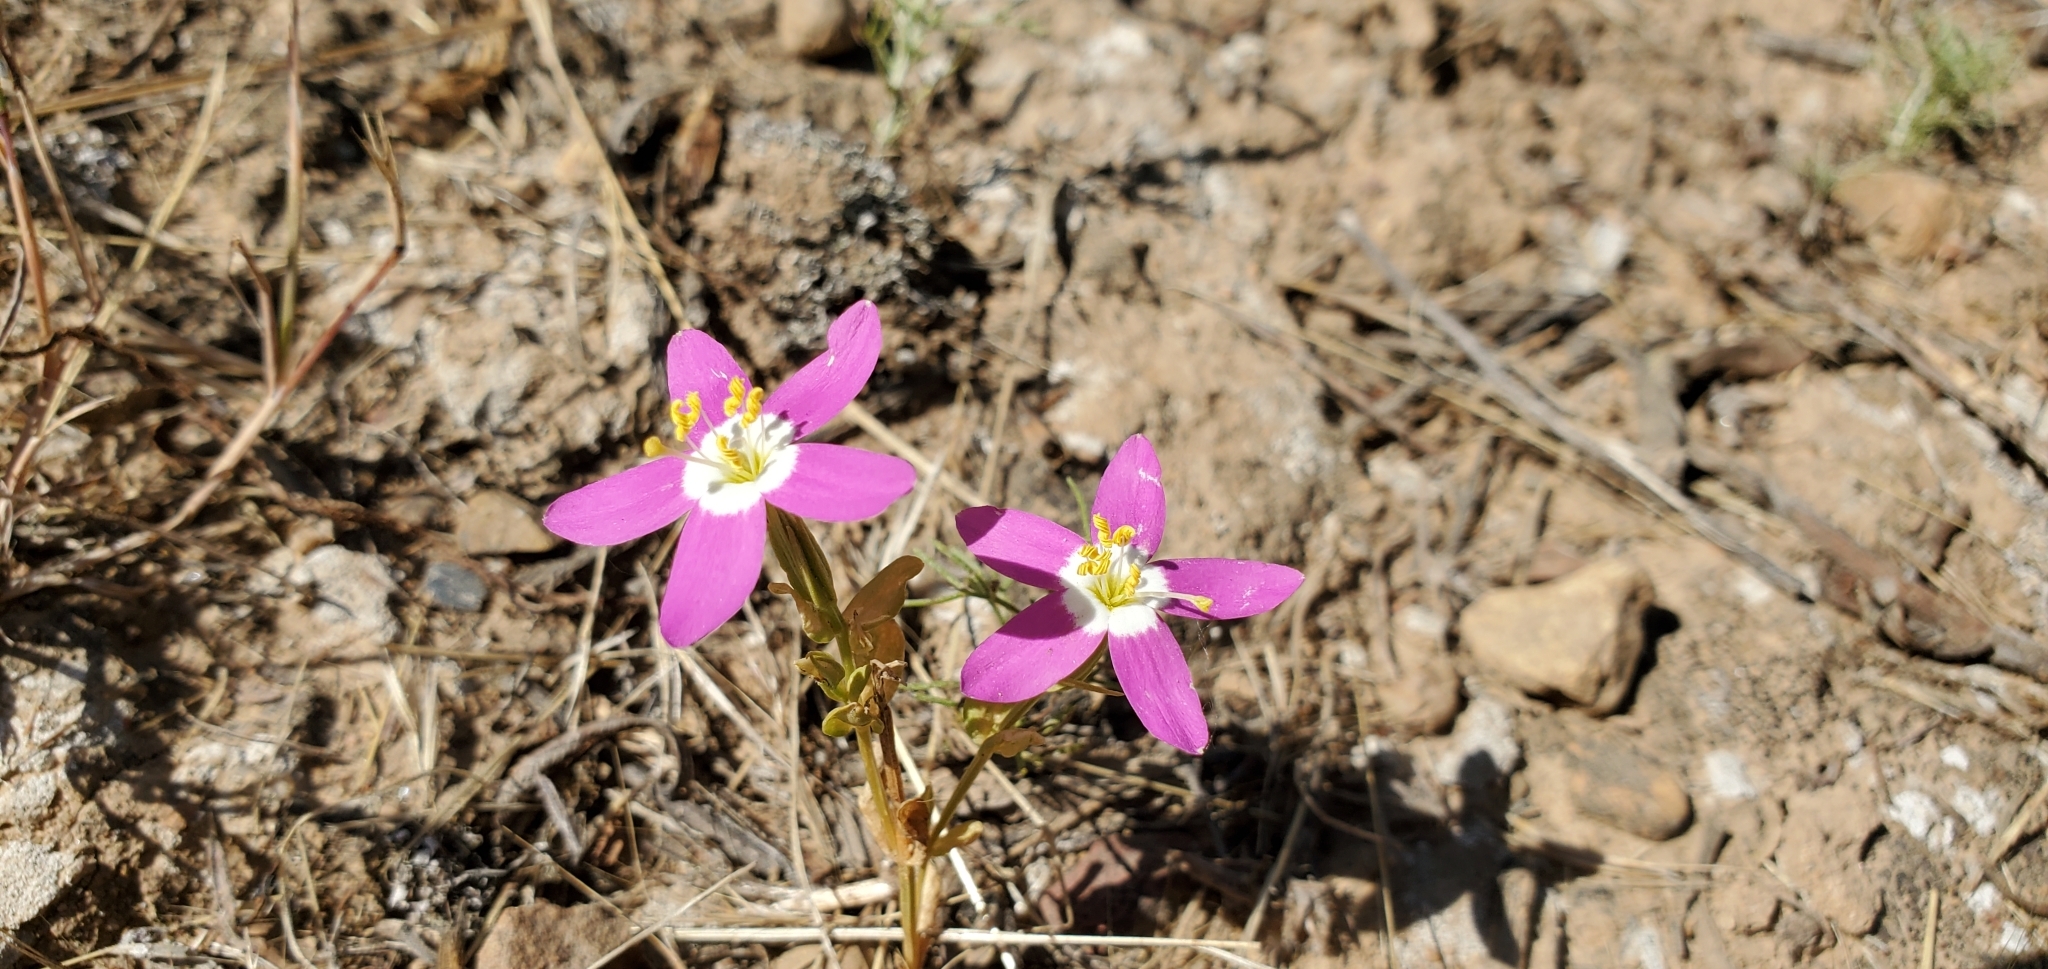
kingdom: Plantae
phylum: Tracheophyta
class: Magnoliopsida
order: Gentianales
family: Gentianaceae
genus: Zeltnera
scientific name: Zeltnera venusta
